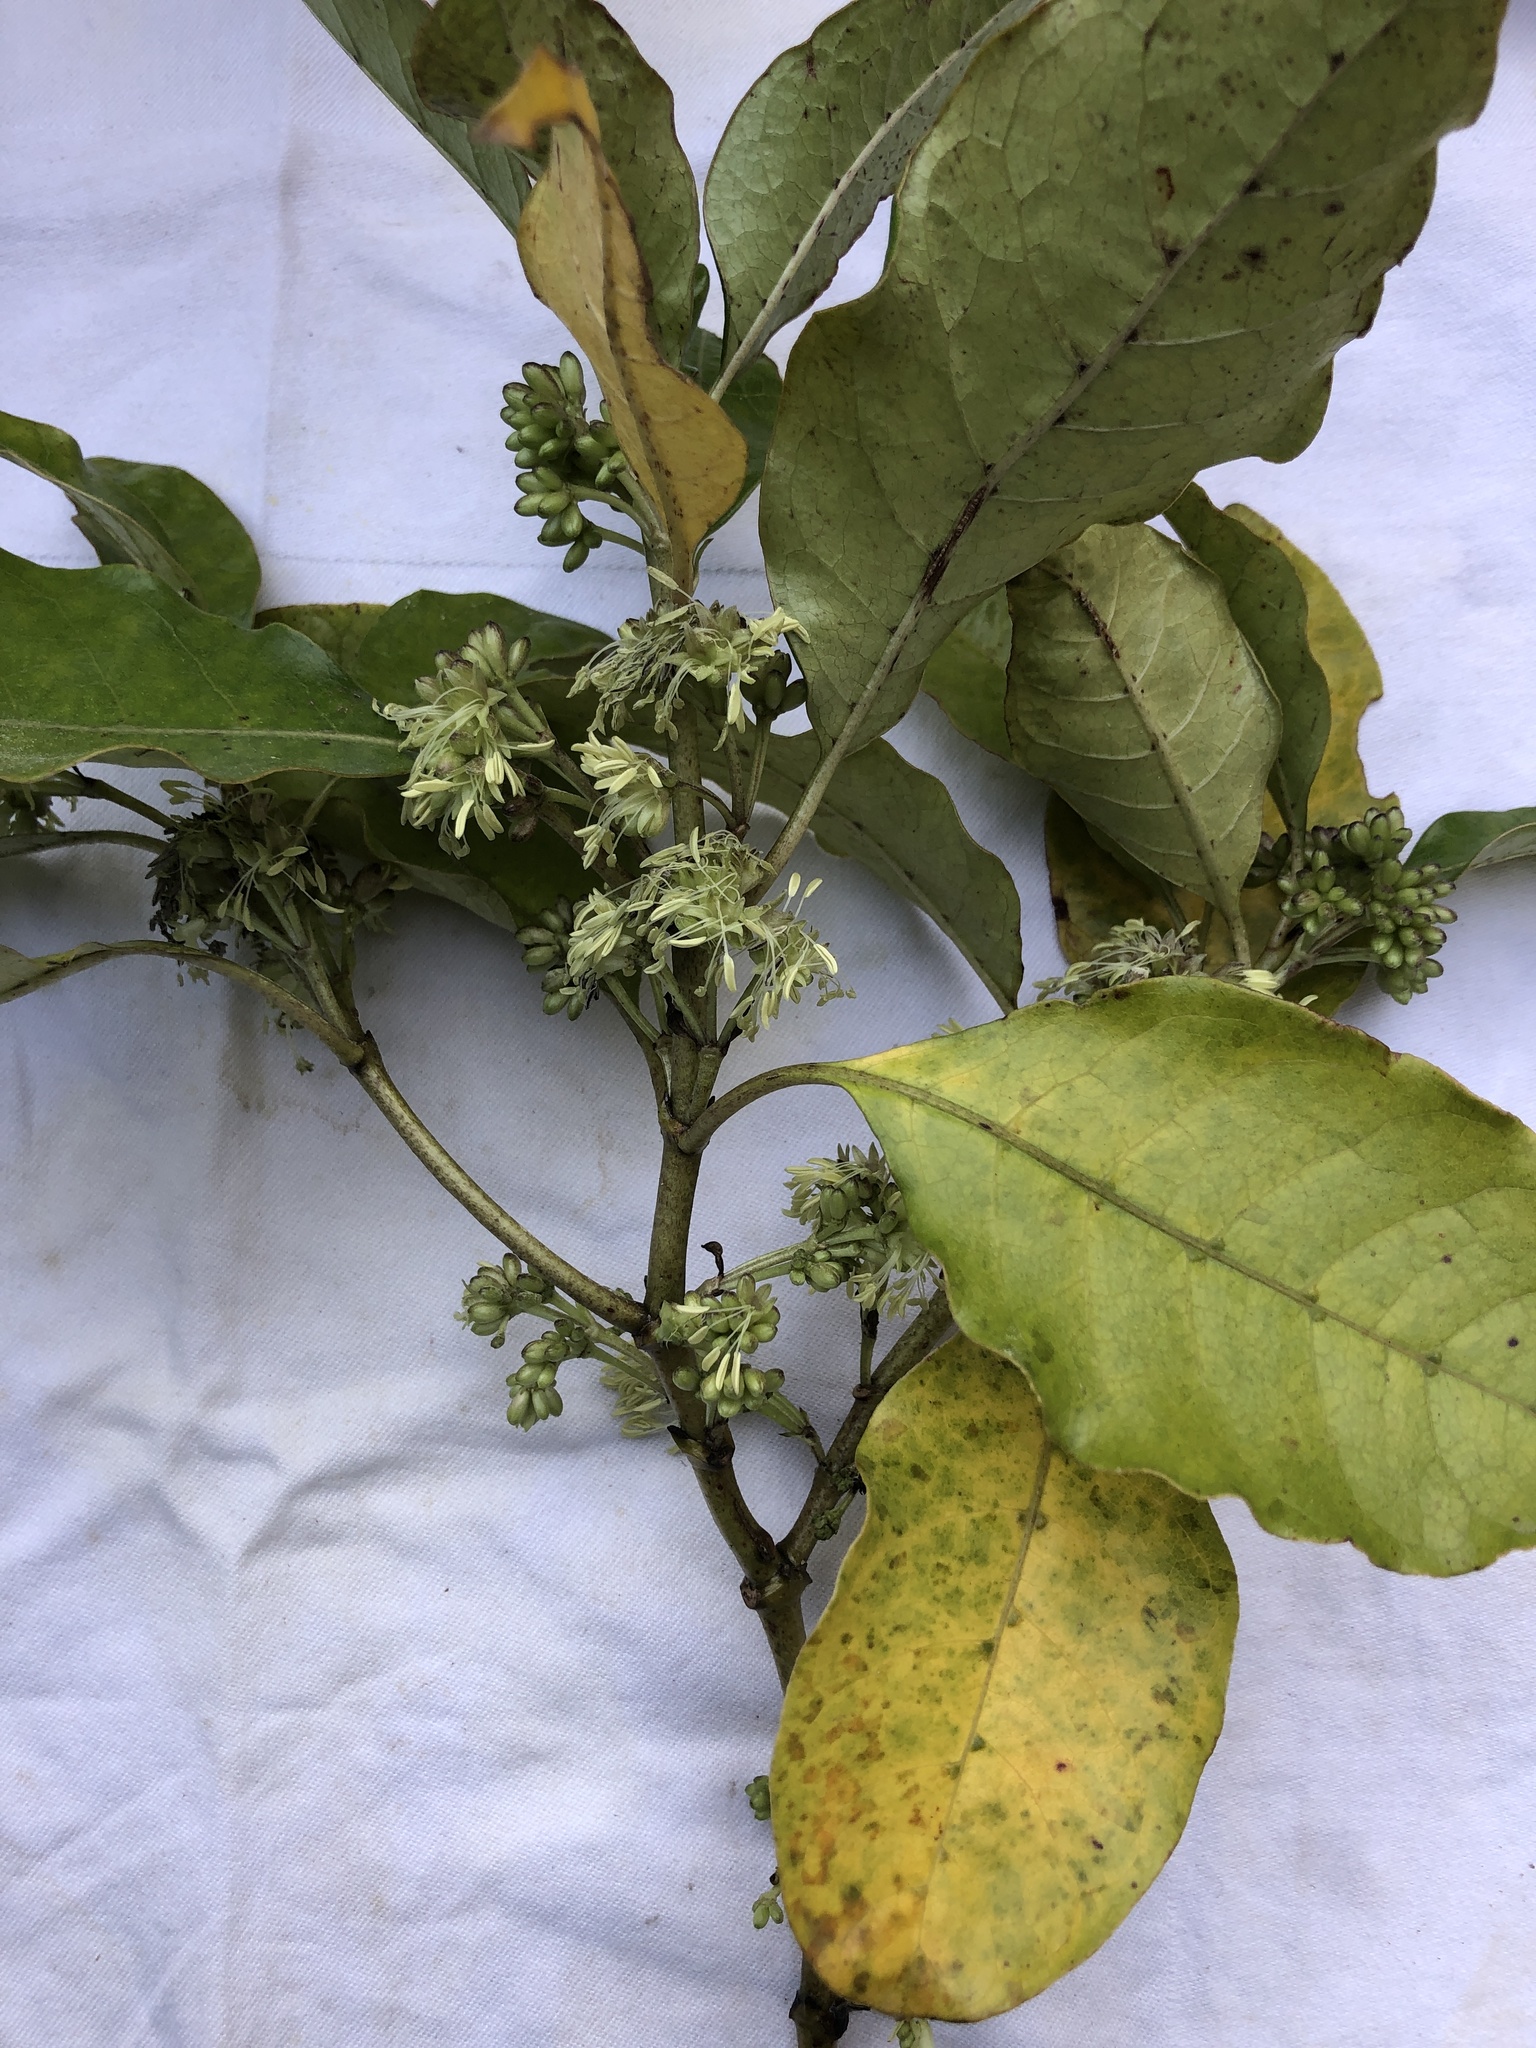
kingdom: Plantae
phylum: Tracheophyta
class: Magnoliopsida
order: Gentianales
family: Rubiaceae
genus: Coprosma
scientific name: Coprosma autumnalis
